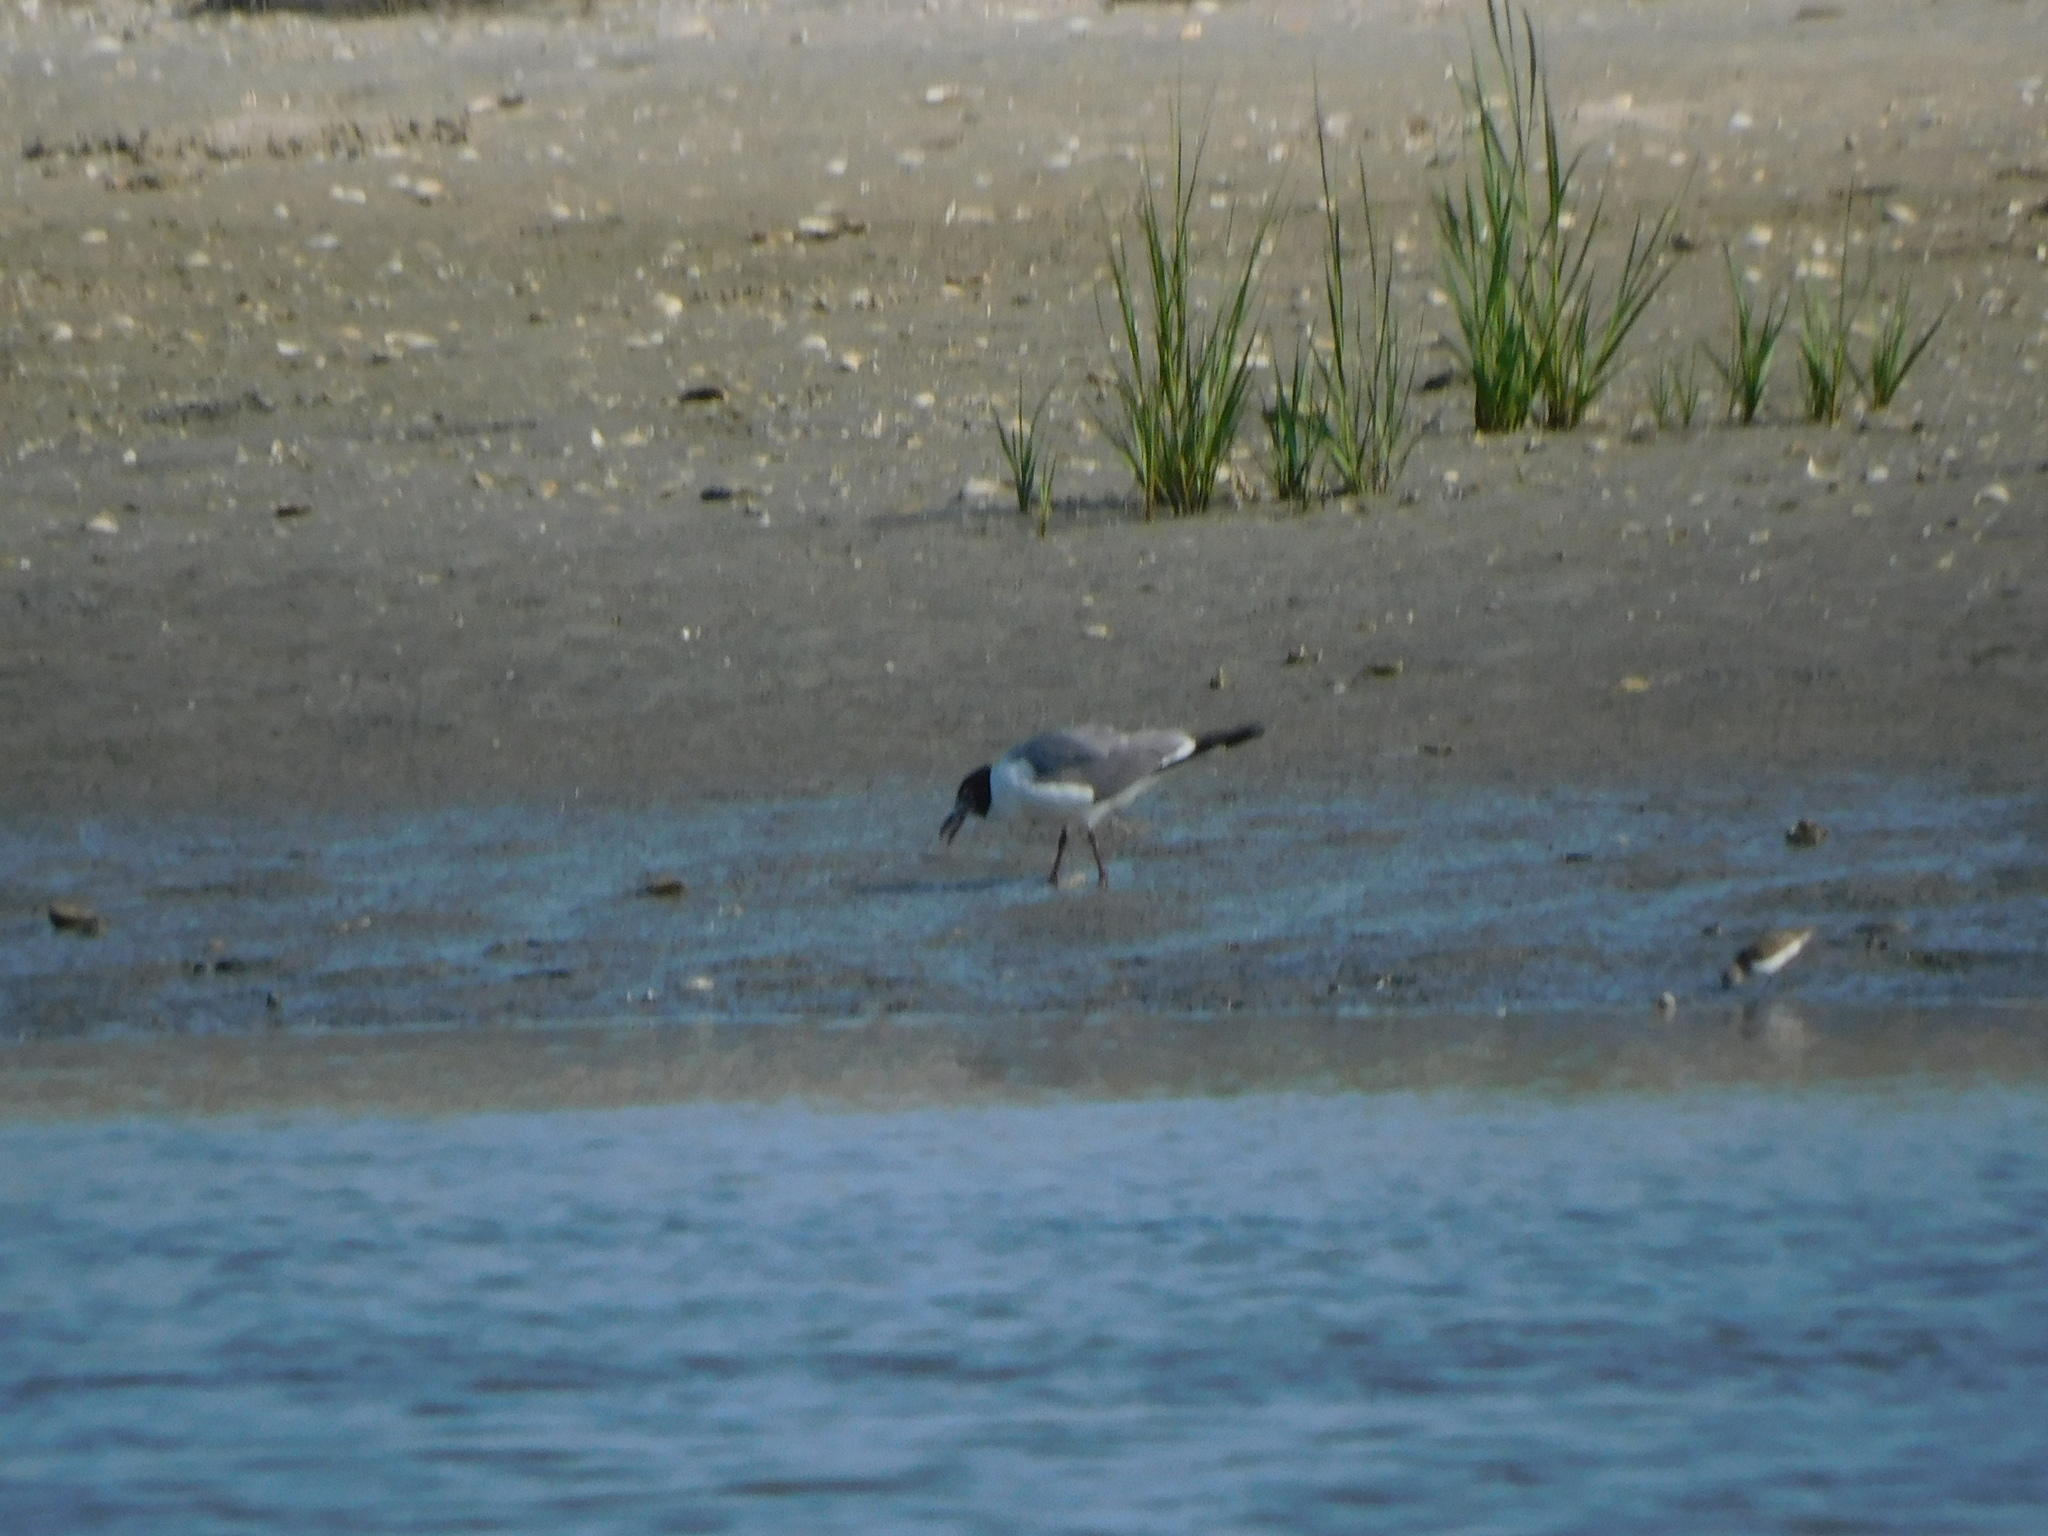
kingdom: Animalia
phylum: Chordata
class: Aves
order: Charadriiformes
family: Laridae
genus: Leucophaeus
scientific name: Leucophaeus atricilla
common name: Laughing gull
